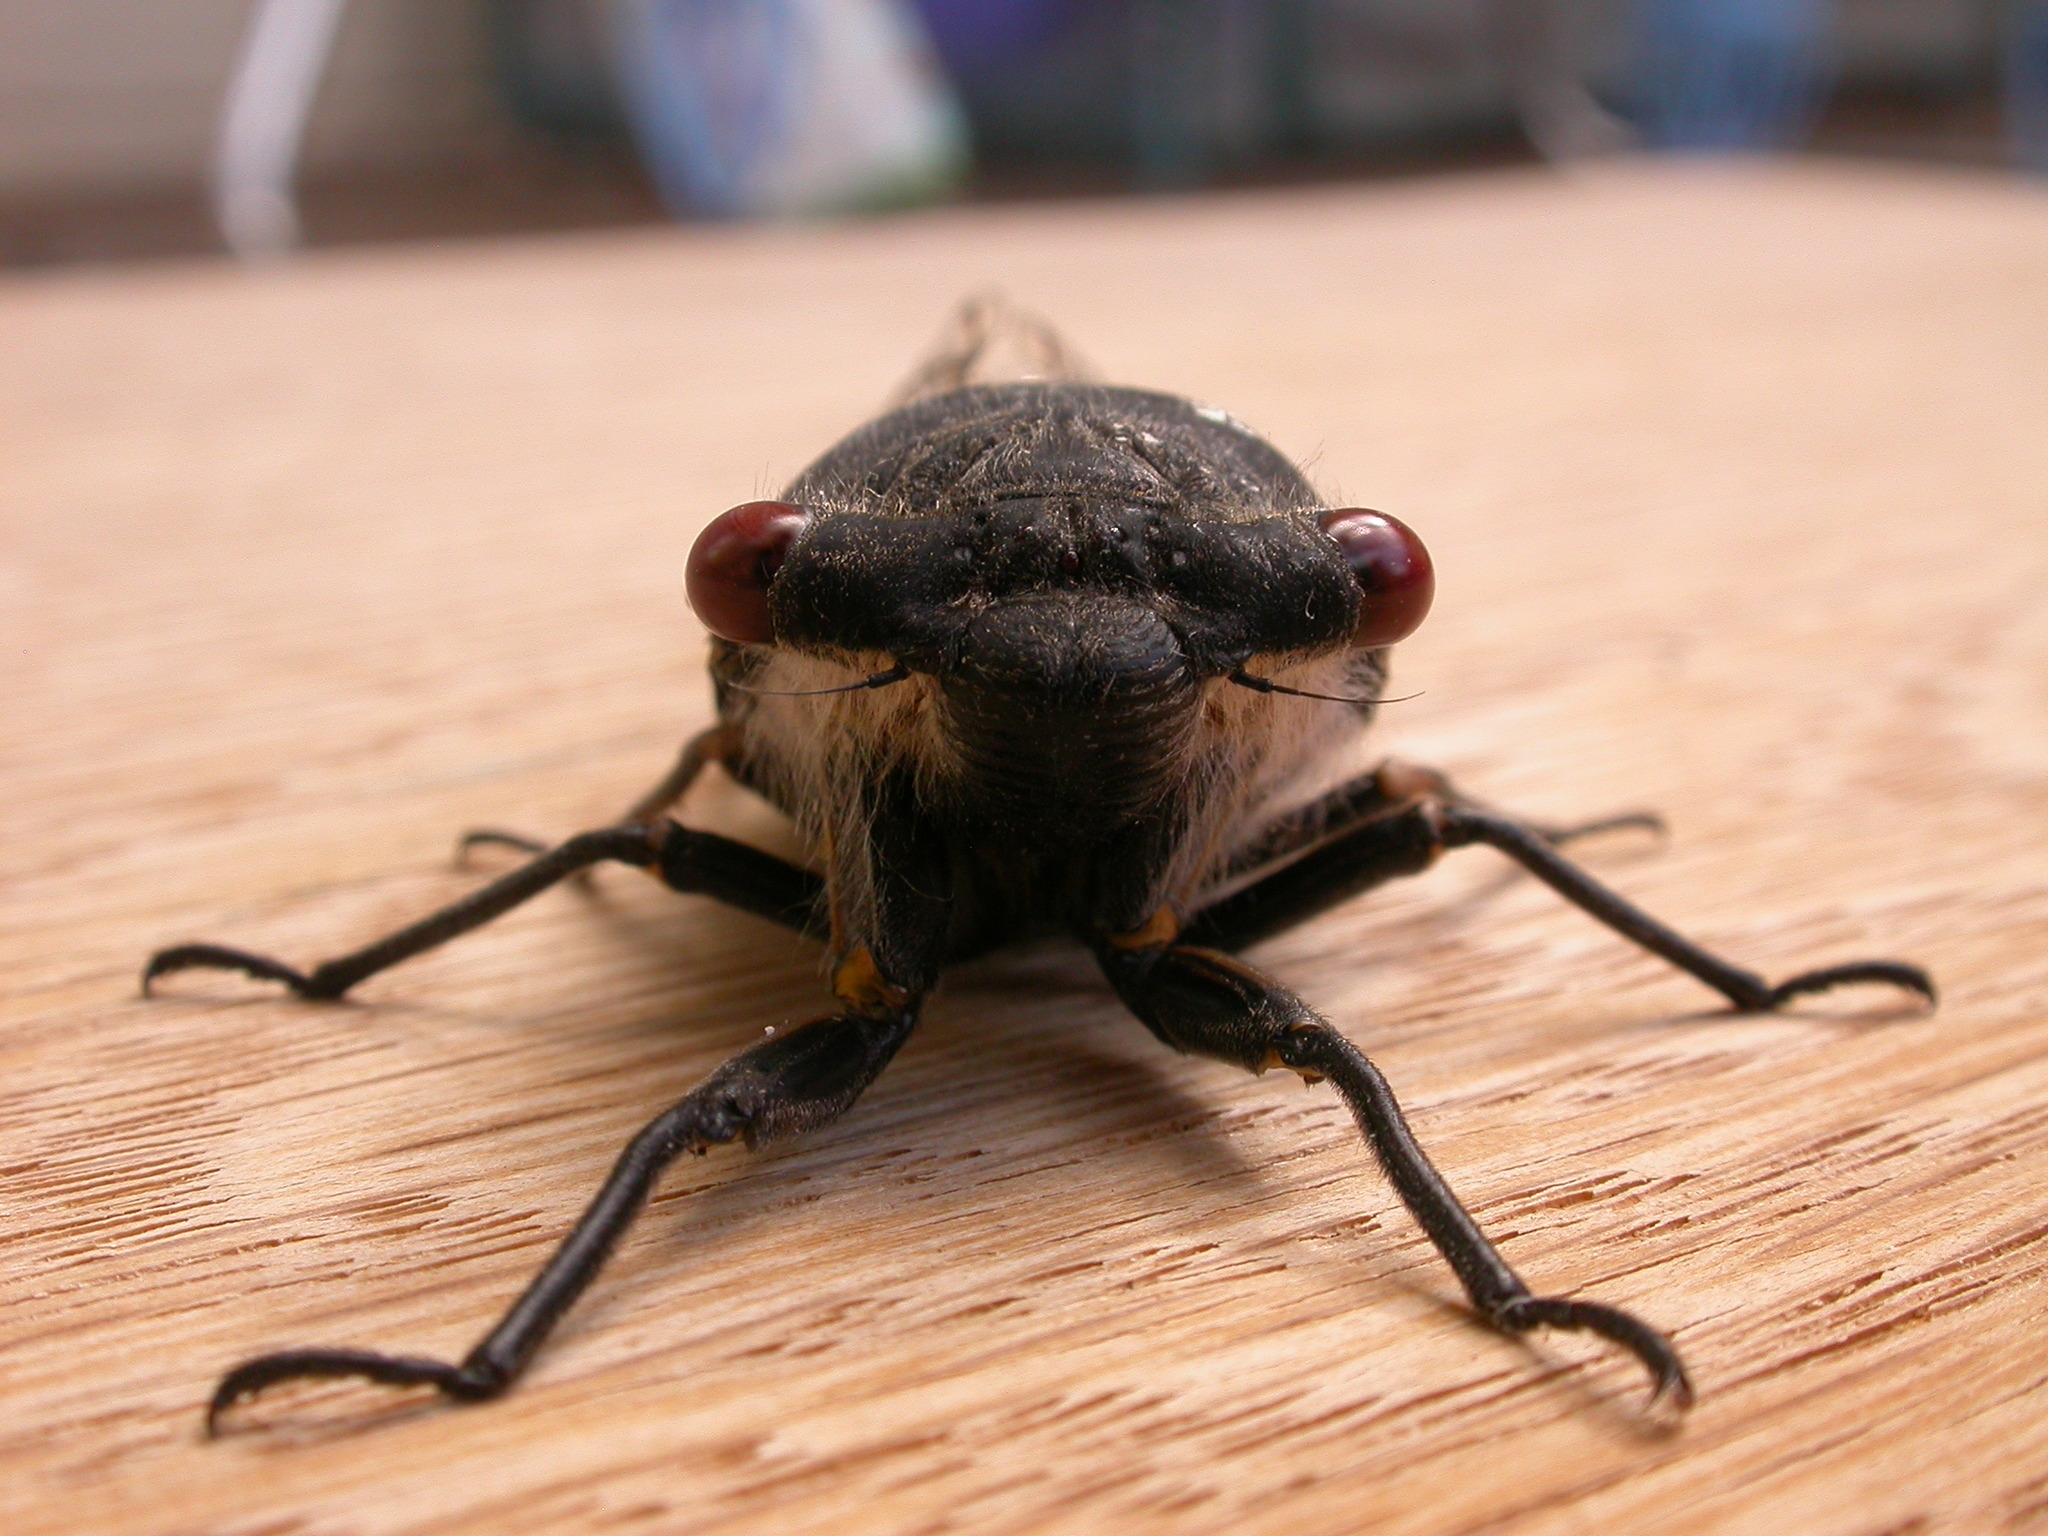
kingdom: Animalia
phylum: Arthropoda
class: Insecta
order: Hemiptera
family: Cicadidae
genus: Psaltoda
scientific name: Psaltoda moerens
